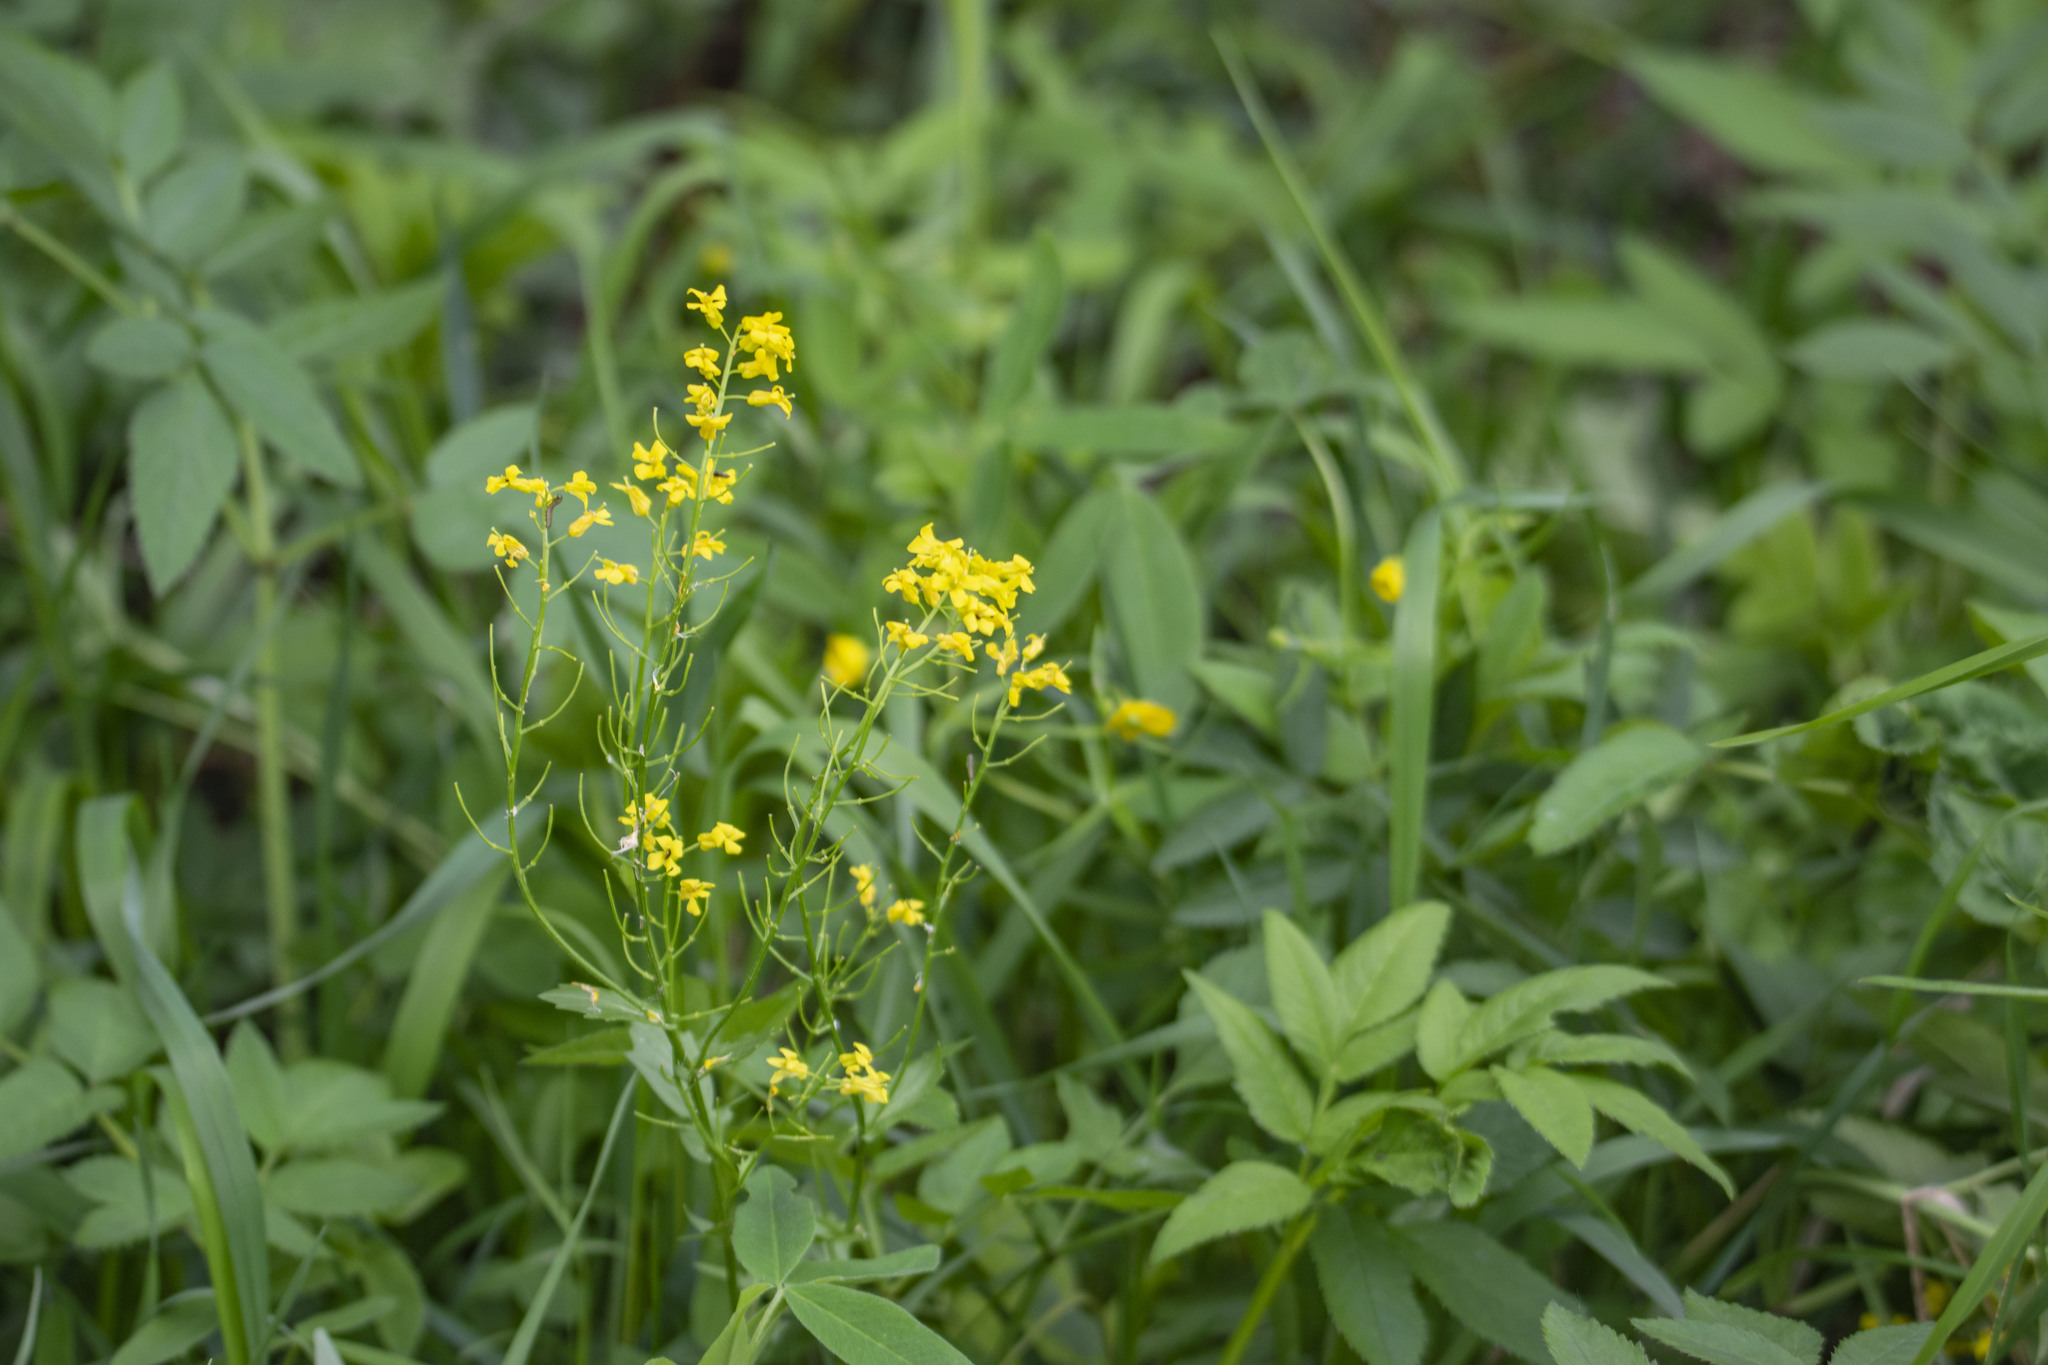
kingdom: Plantae
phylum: Tracheophyta
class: Magnoliopsida
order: Brassicales
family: Brassicaceae
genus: Barbarea
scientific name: Barbarea vulgaris
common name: Cressy-greens
